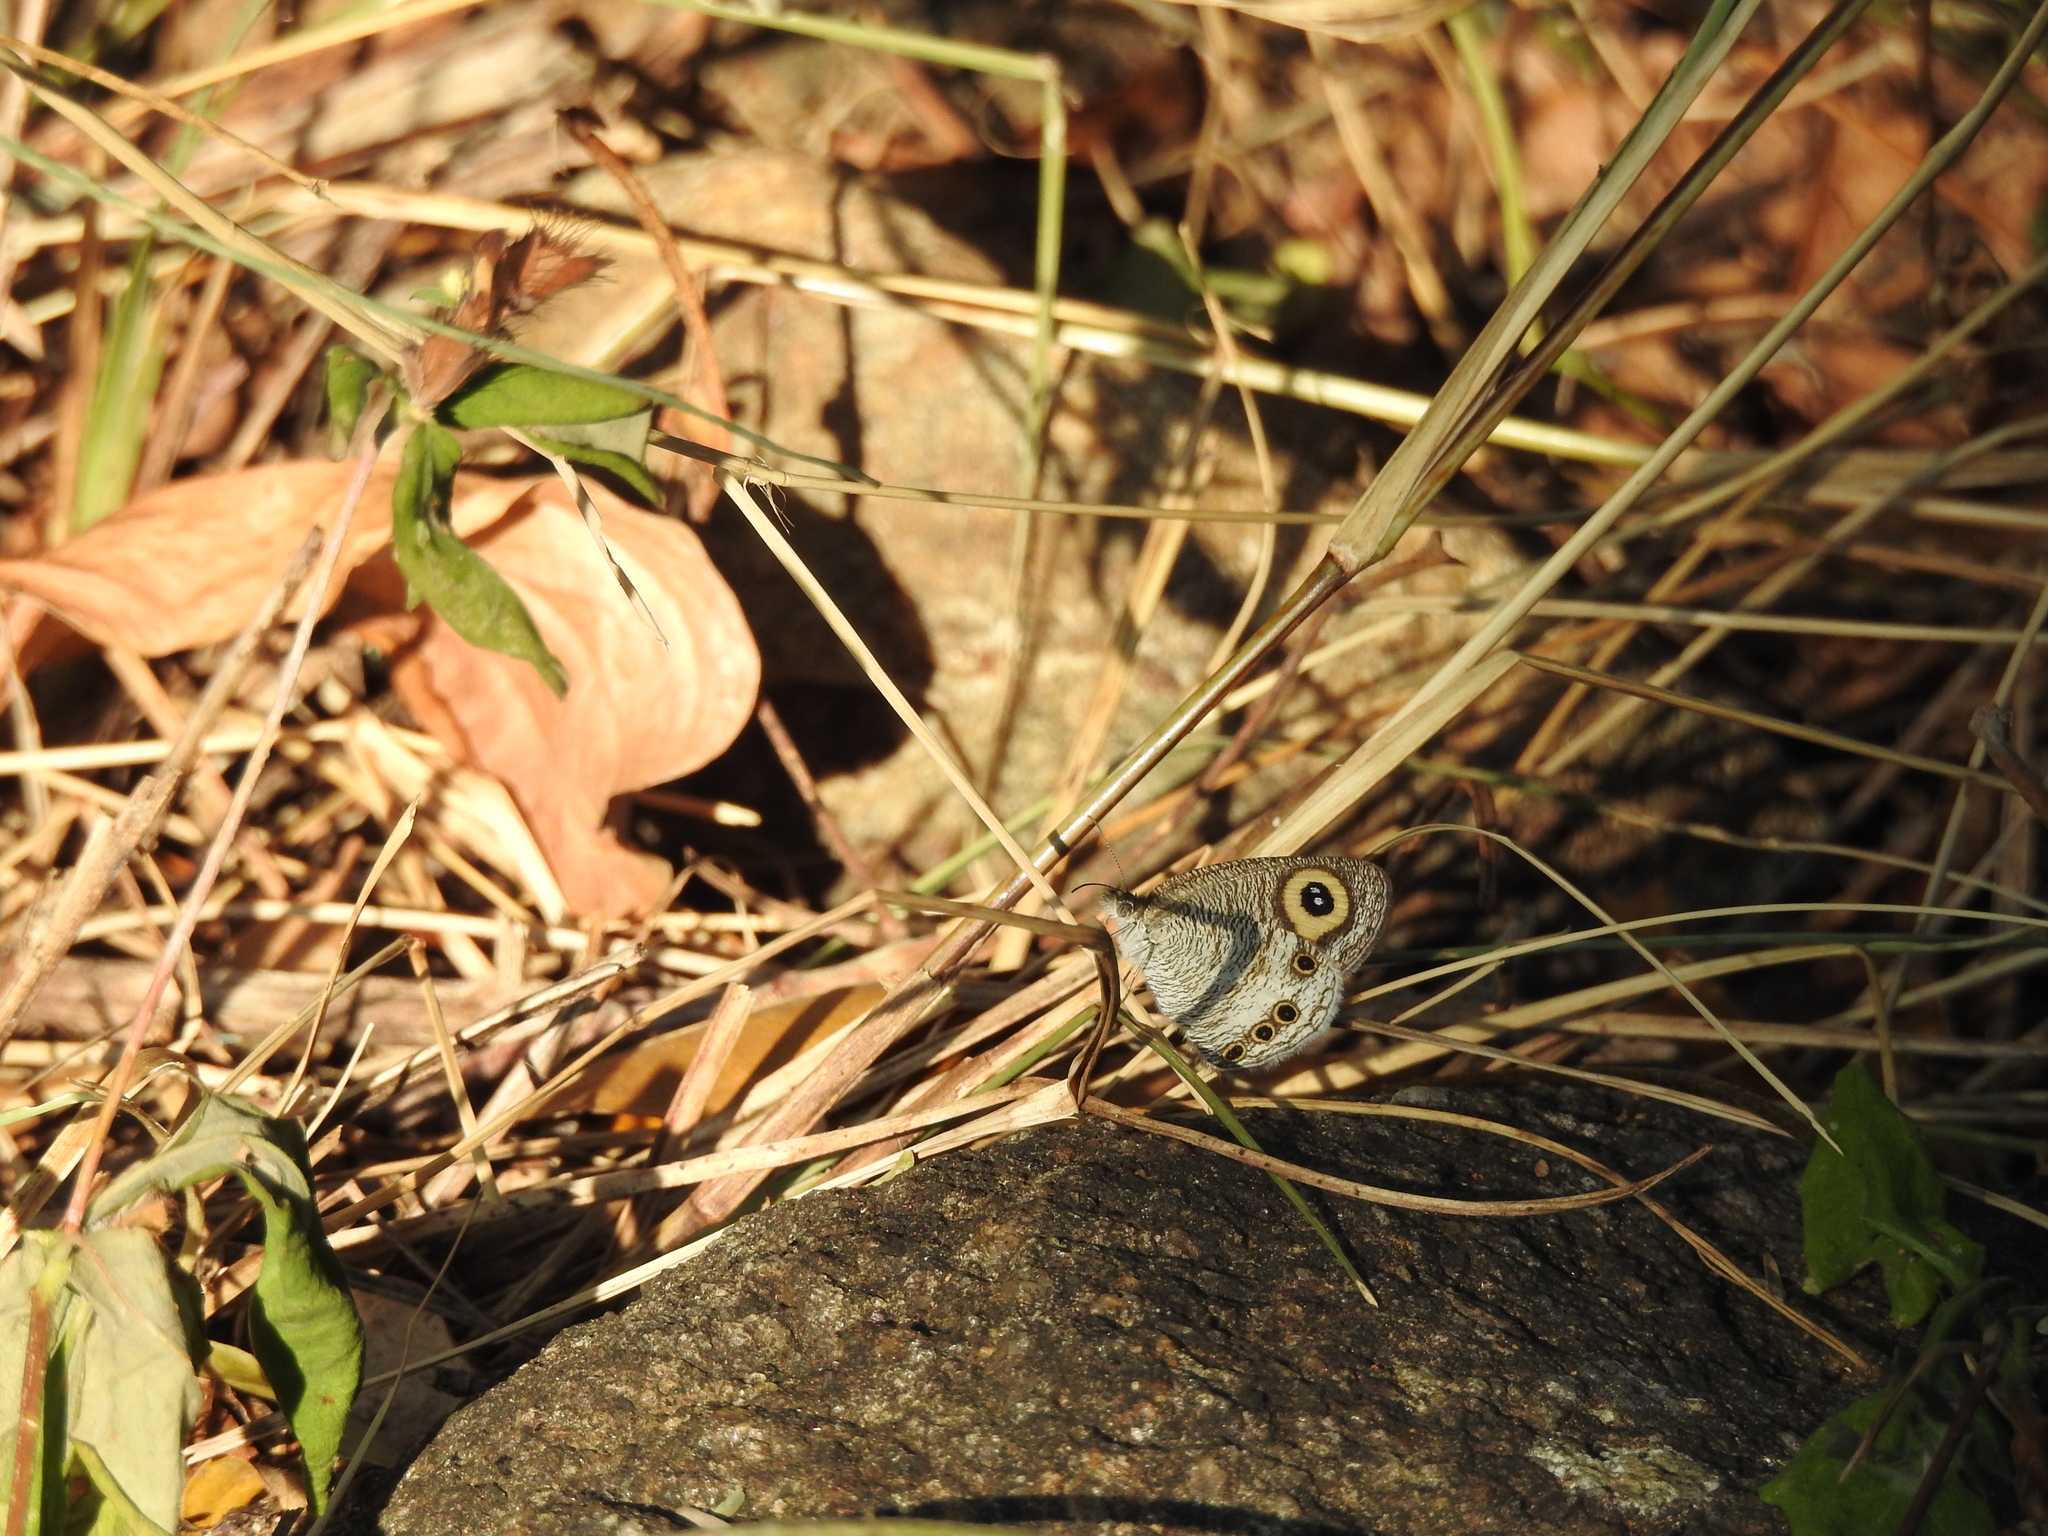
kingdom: Animalia
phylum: Arthropoda
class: Insecta
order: Lepidoptera
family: Nymphalidae
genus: Ypthima
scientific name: Ypthima huebneri
